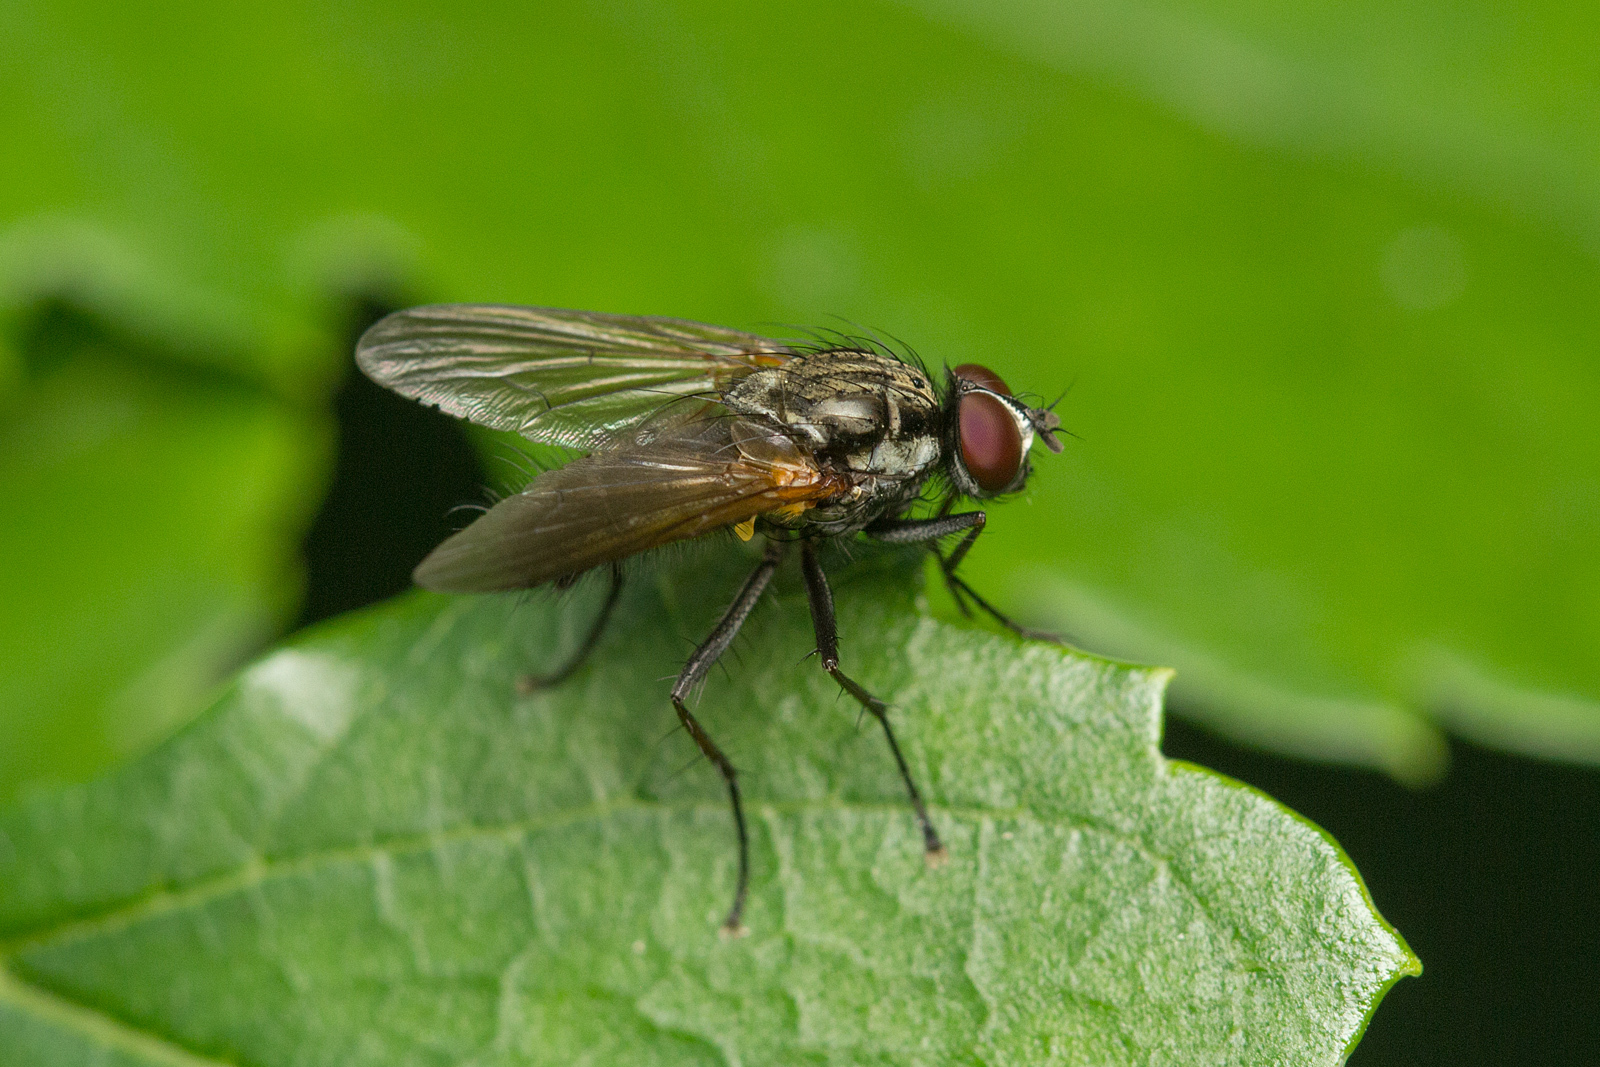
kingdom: Animalia
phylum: Arthropoda
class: Insecta
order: Diptera
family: Anthomyiidae
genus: Hydrophoria
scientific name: Hydrophoria lancifer
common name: Root-maggot fly
